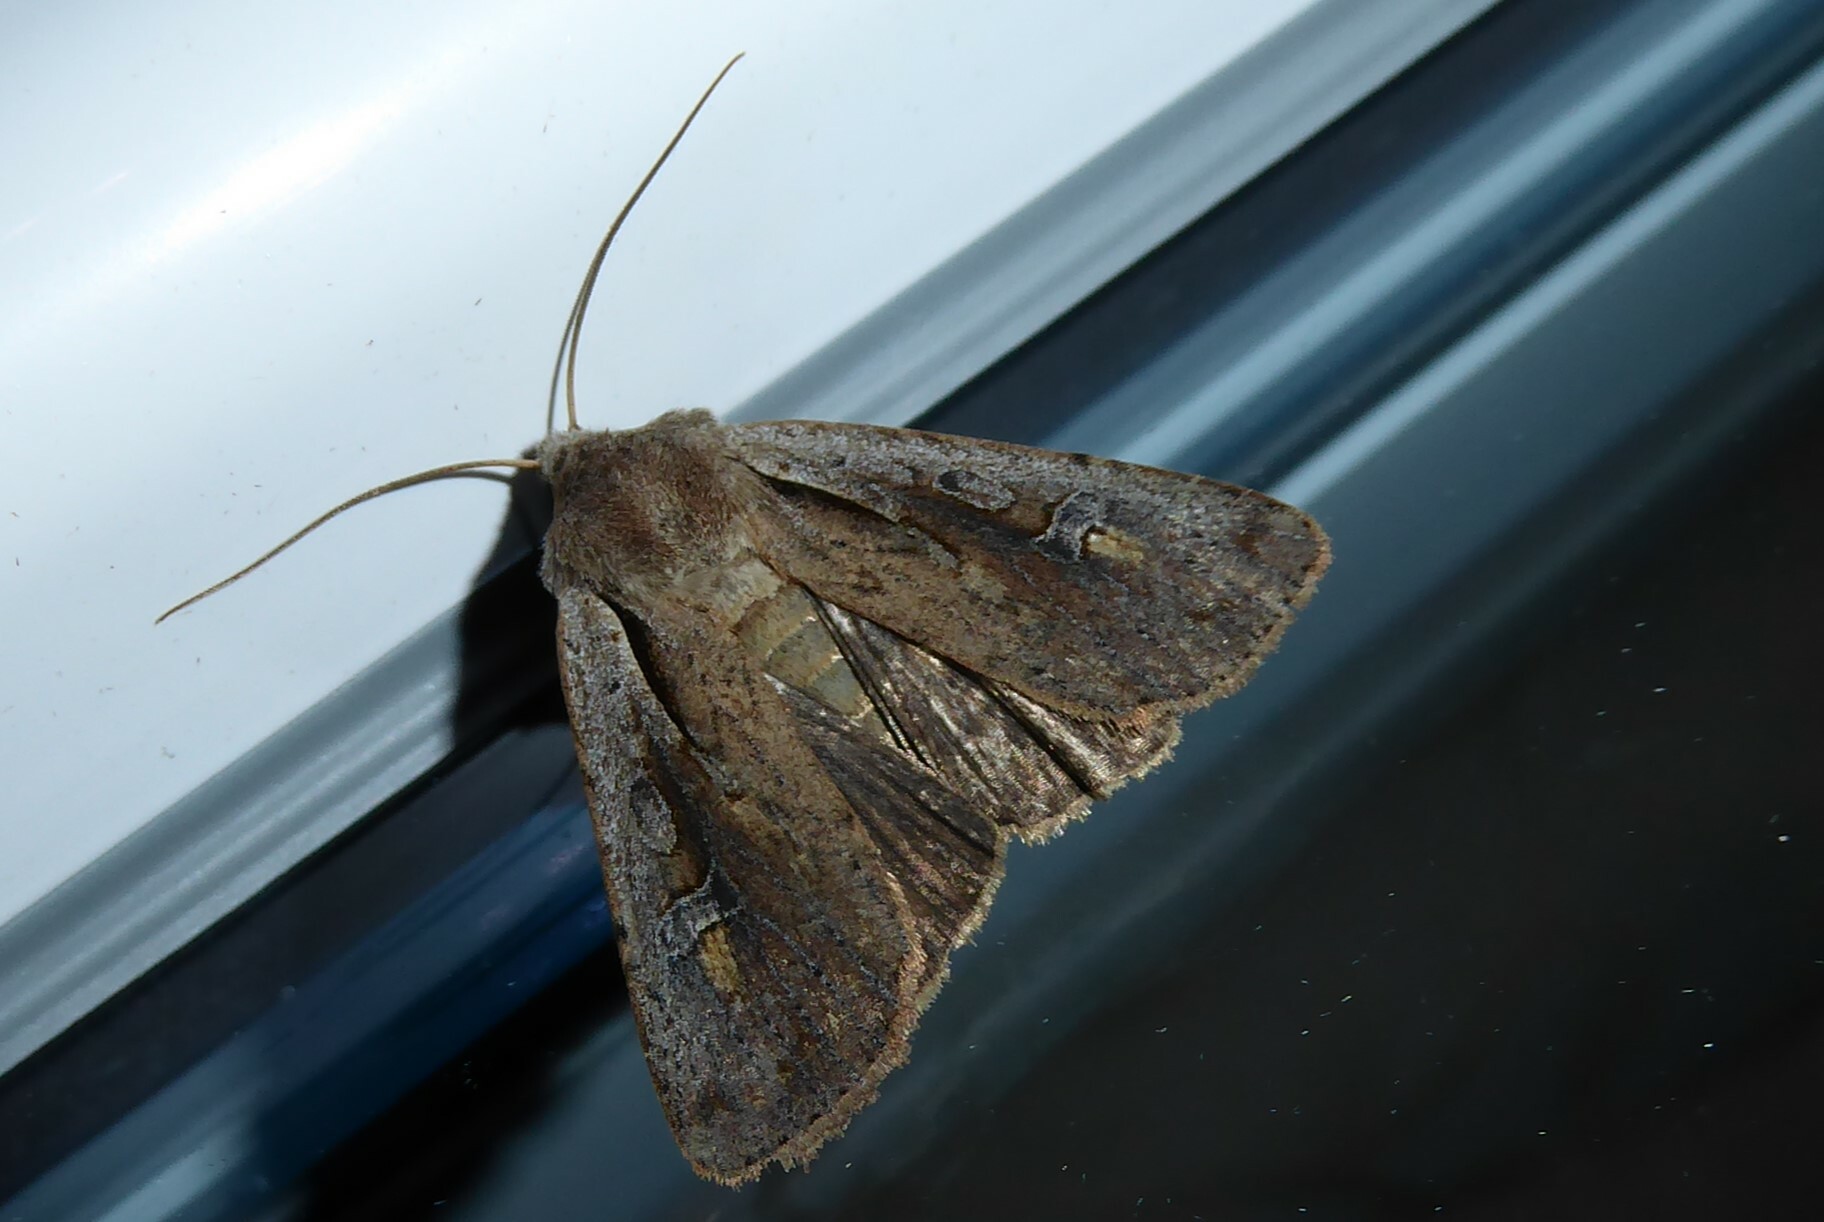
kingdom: Animalia
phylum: Arthropoda
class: Insecta
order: Lepidoptera
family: Noctuidae
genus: Ichneutica
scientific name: Ichneutica atristriga
